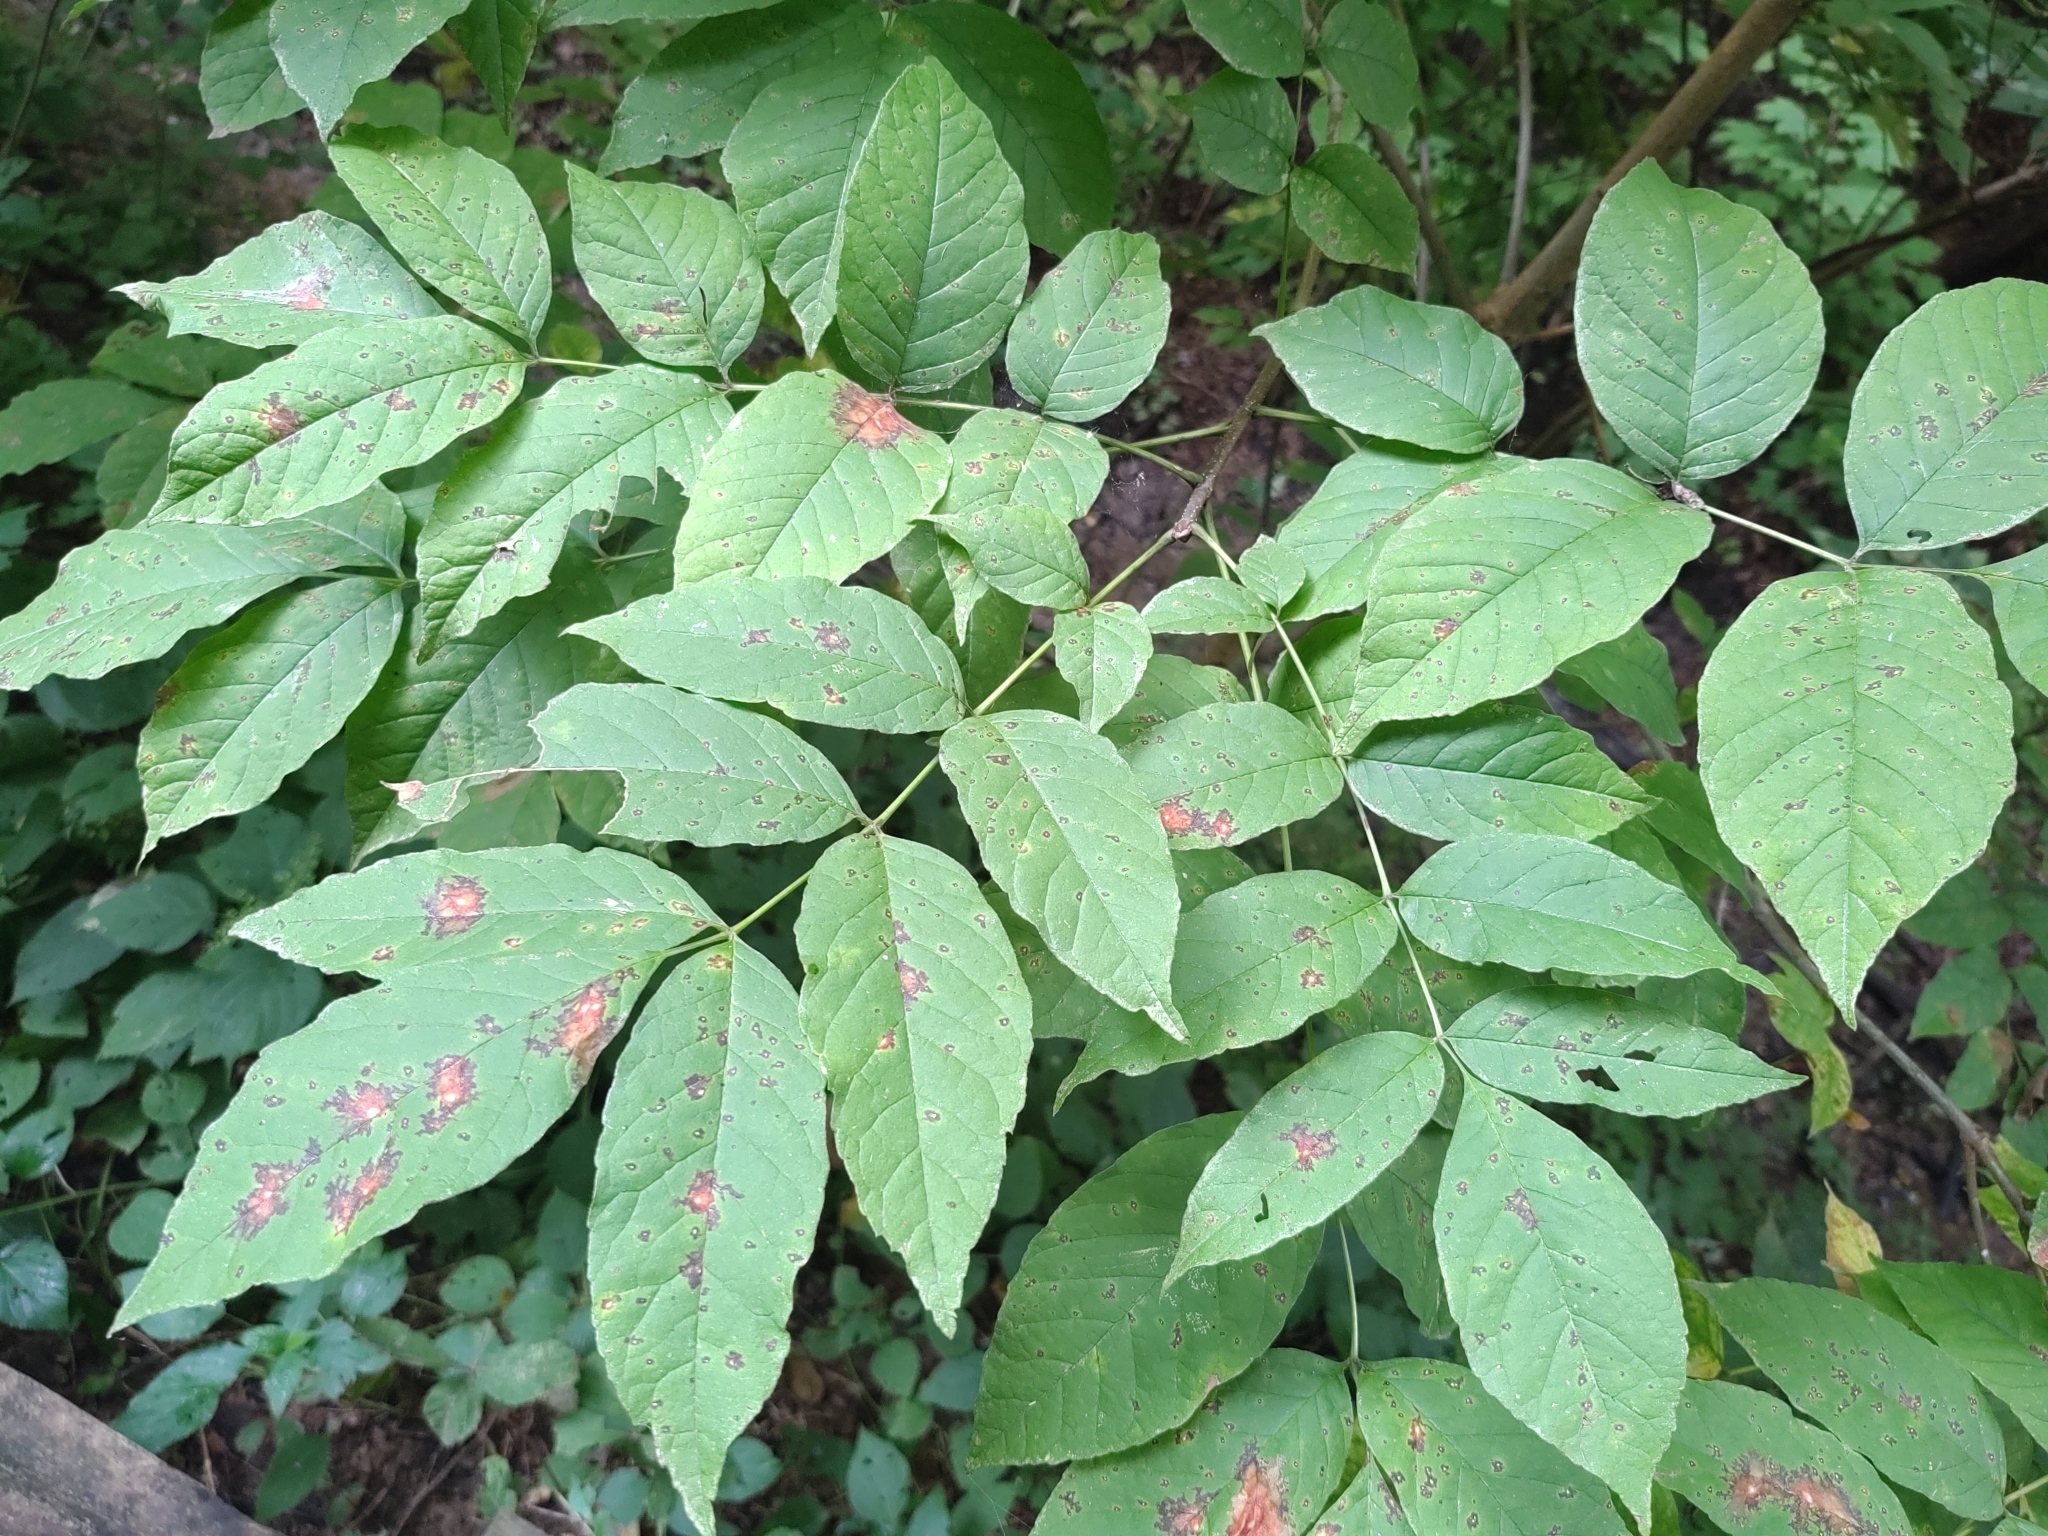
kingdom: Plantae
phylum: Tracheophyta
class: Magnoliopsida
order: Lamiales
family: Oleaceae
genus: Fraxinus
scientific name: Fraxinus pennsylvanica
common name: Green ash
